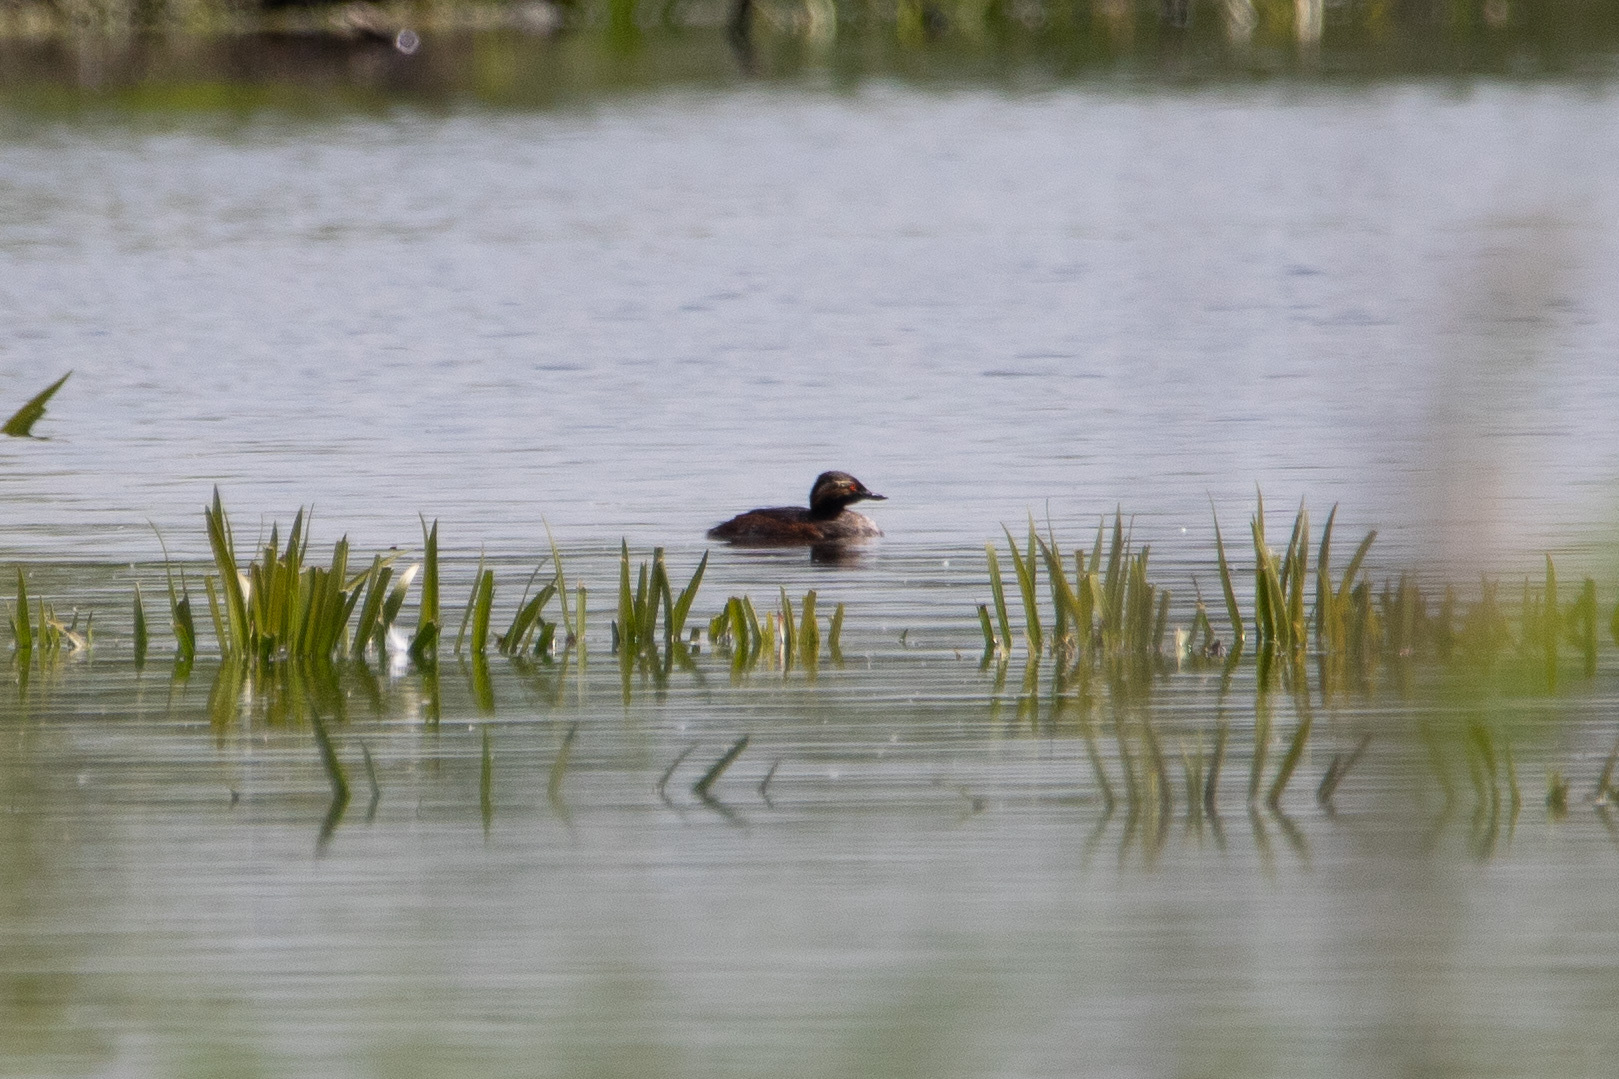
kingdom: Animalia
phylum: Chordata
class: Aves
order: Podicipediformes
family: Podicipedidae
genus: Podiceps
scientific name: Podiceps nigricollis
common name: Black-necked grebe
